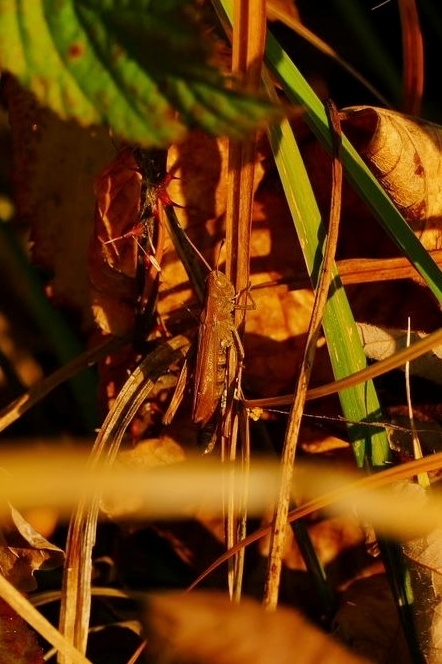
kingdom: Animalia
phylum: Arthropoda
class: Insecta
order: Orthoptera
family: Acrididae
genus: Gomphocerippus
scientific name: Gomphocerippus rufus
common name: Rufous grasshopper
